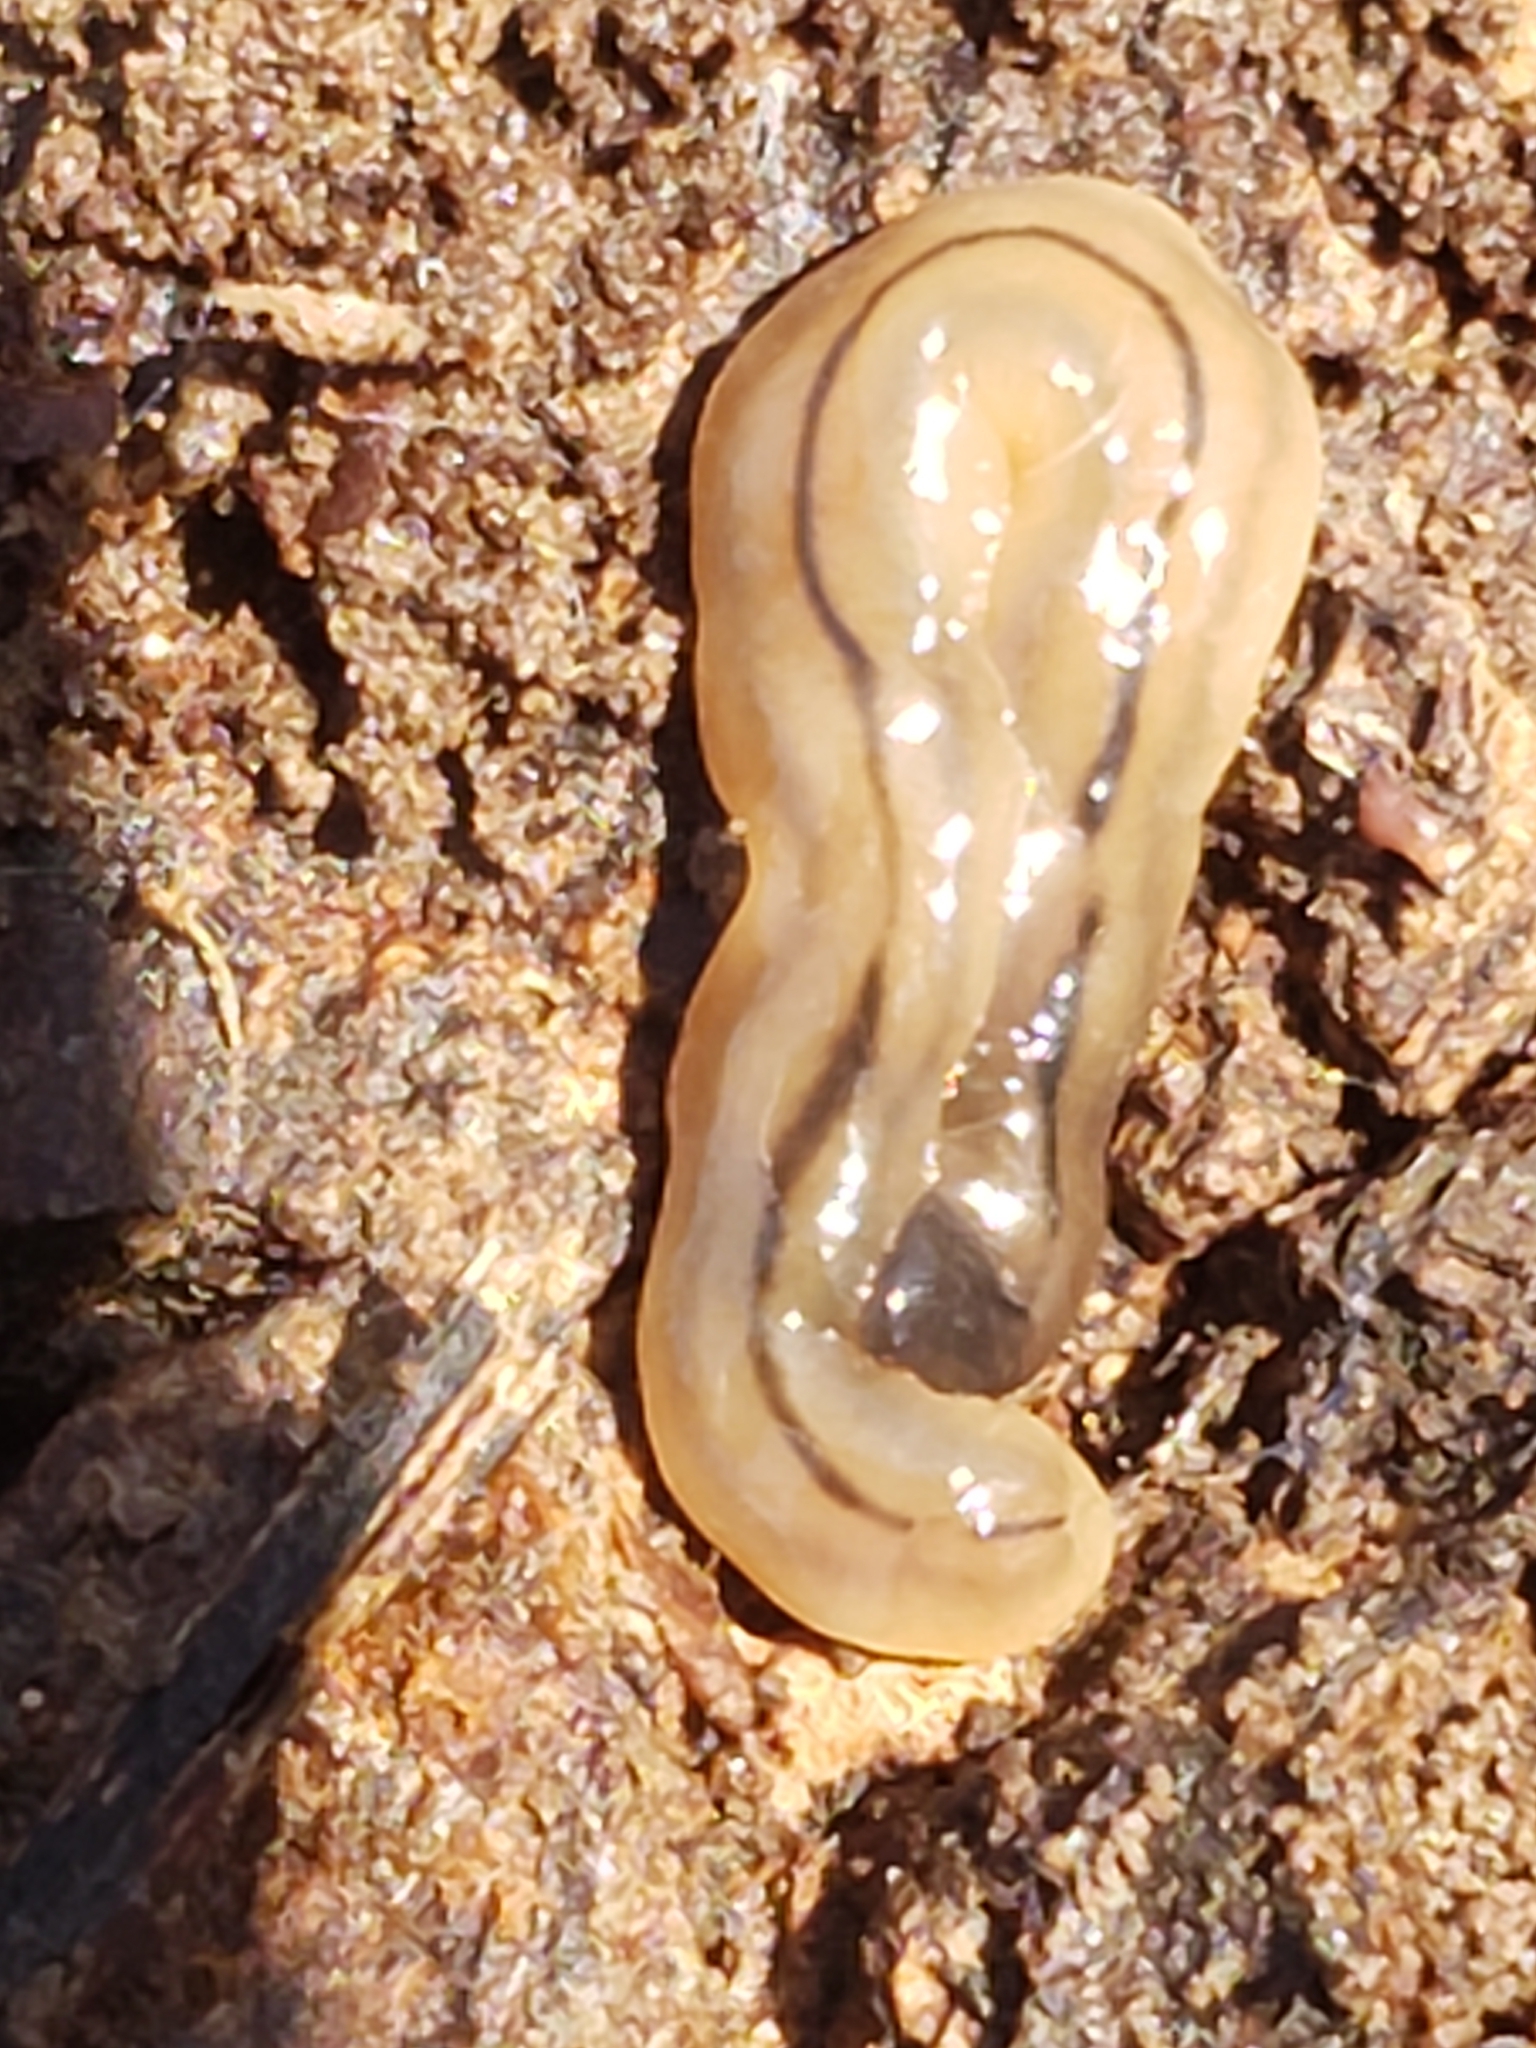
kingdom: Animalia
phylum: Platyhelminthes
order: Tricladida
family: Geoplanidae
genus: Bipalium
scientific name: Bipalium pennsylvanicum
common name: Three-lined land planarian
